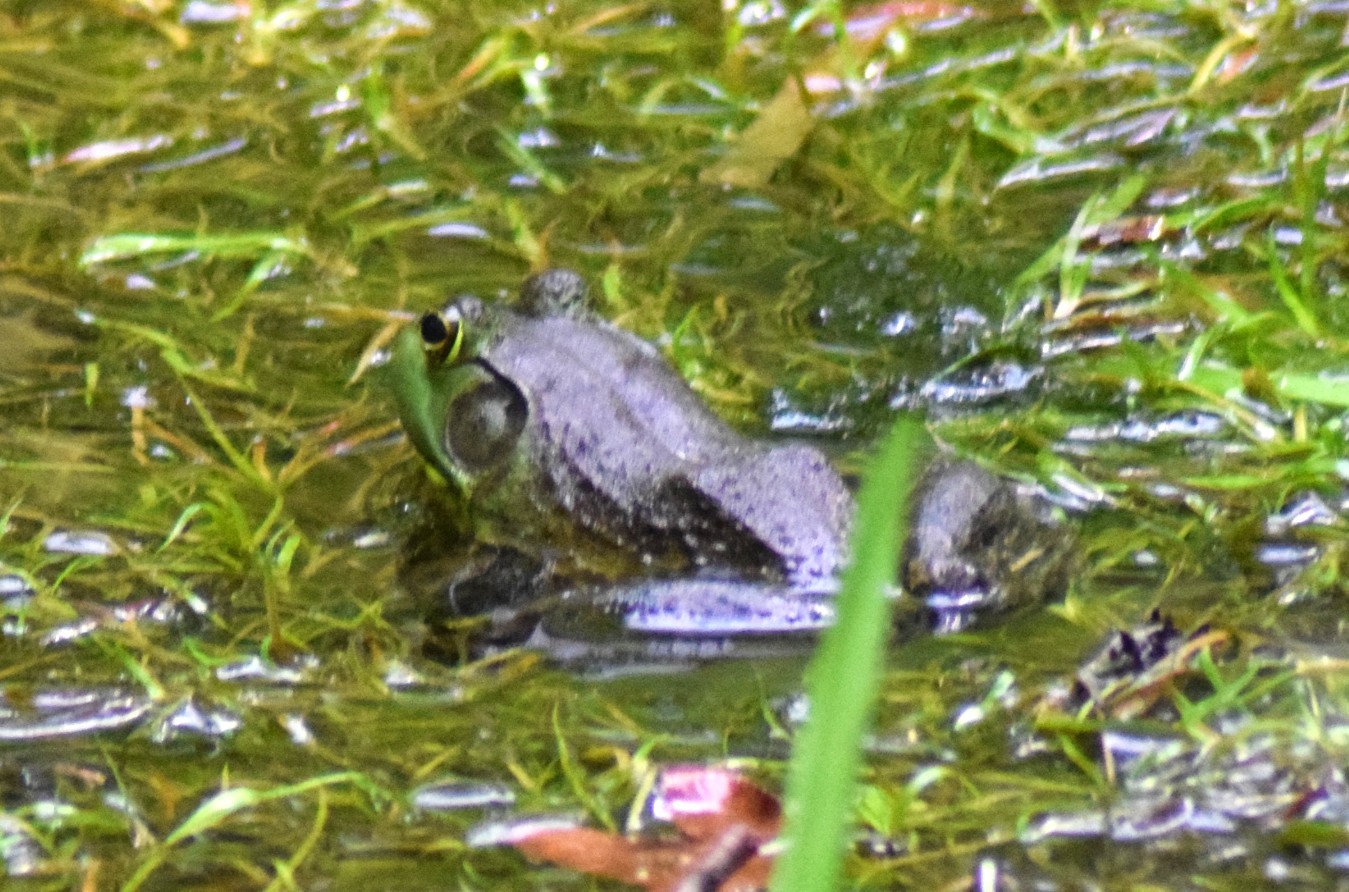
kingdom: Animalia
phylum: Chordata
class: Amphibia
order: Anura
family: Ranidae
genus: Lithobates
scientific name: Lithobates catesbeianus
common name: American bullfrog
